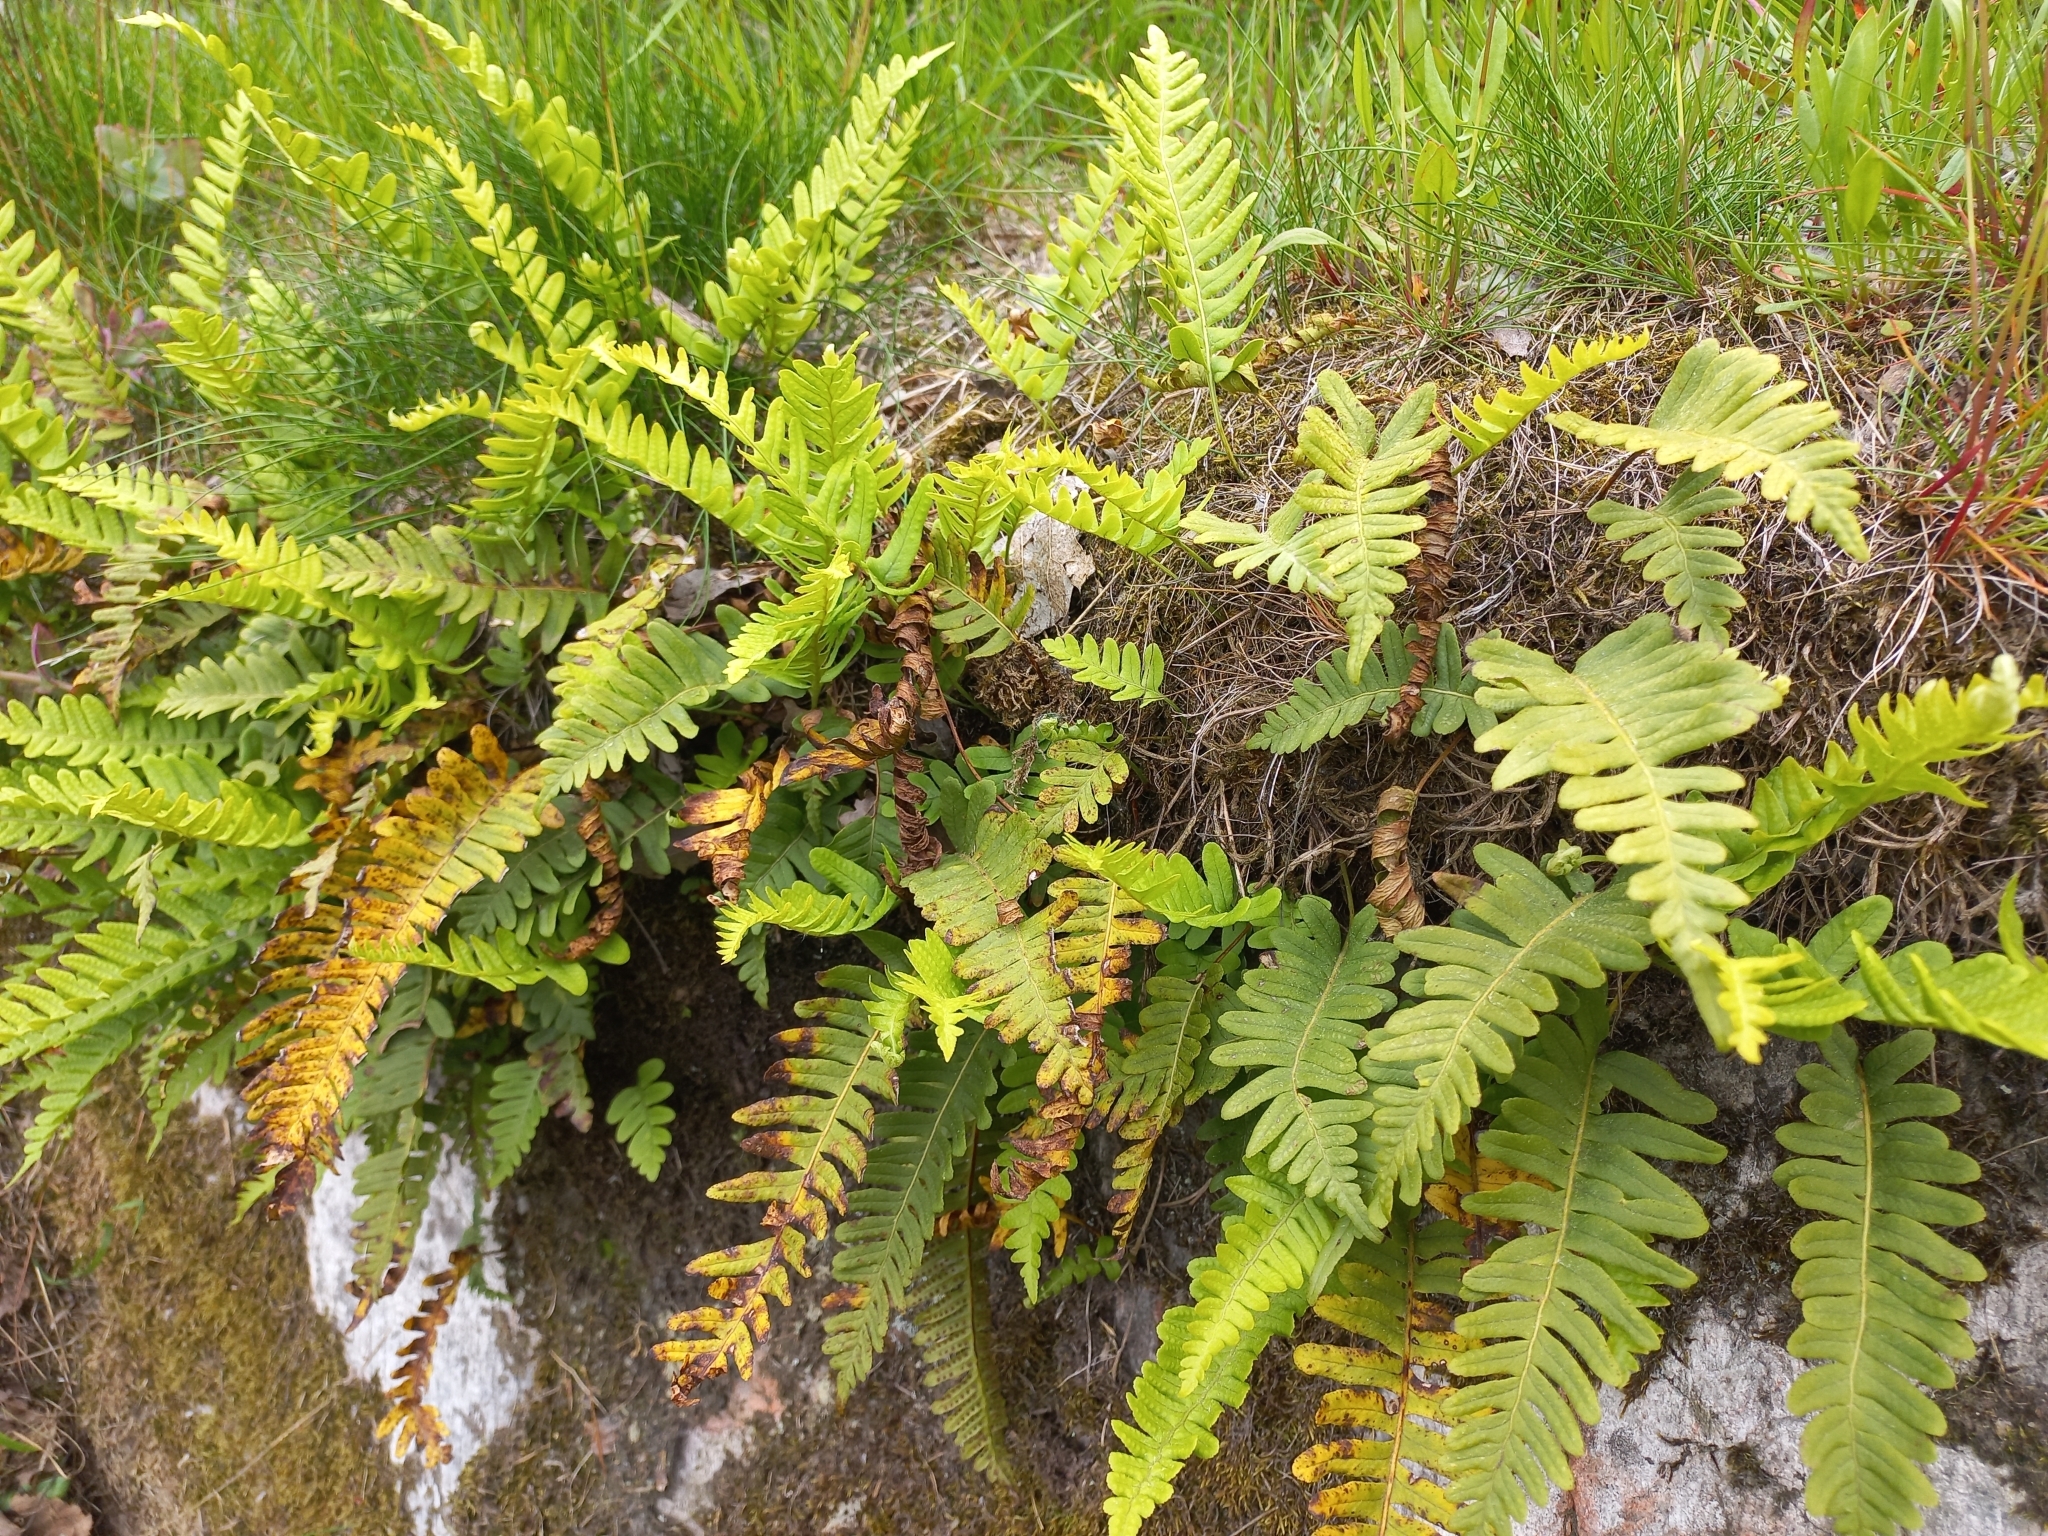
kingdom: Plantae
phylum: Tracheophyta
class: Polypodiopsida
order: Polypodiales
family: Polypodiaceae
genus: Polypodium
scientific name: Polypodium vulgare
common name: Common polypody
